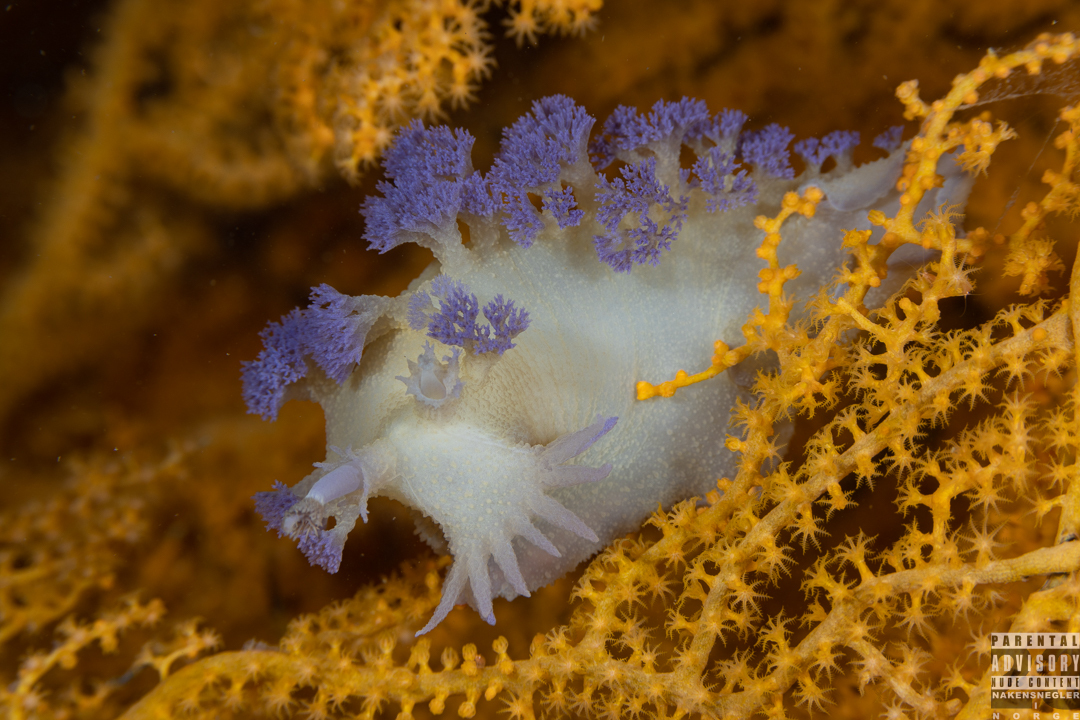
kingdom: Animalia
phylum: Mollusca
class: Gastropoda
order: Nudibranchia
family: Tritoniidae
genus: Tritonia
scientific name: Tritonia griegi
